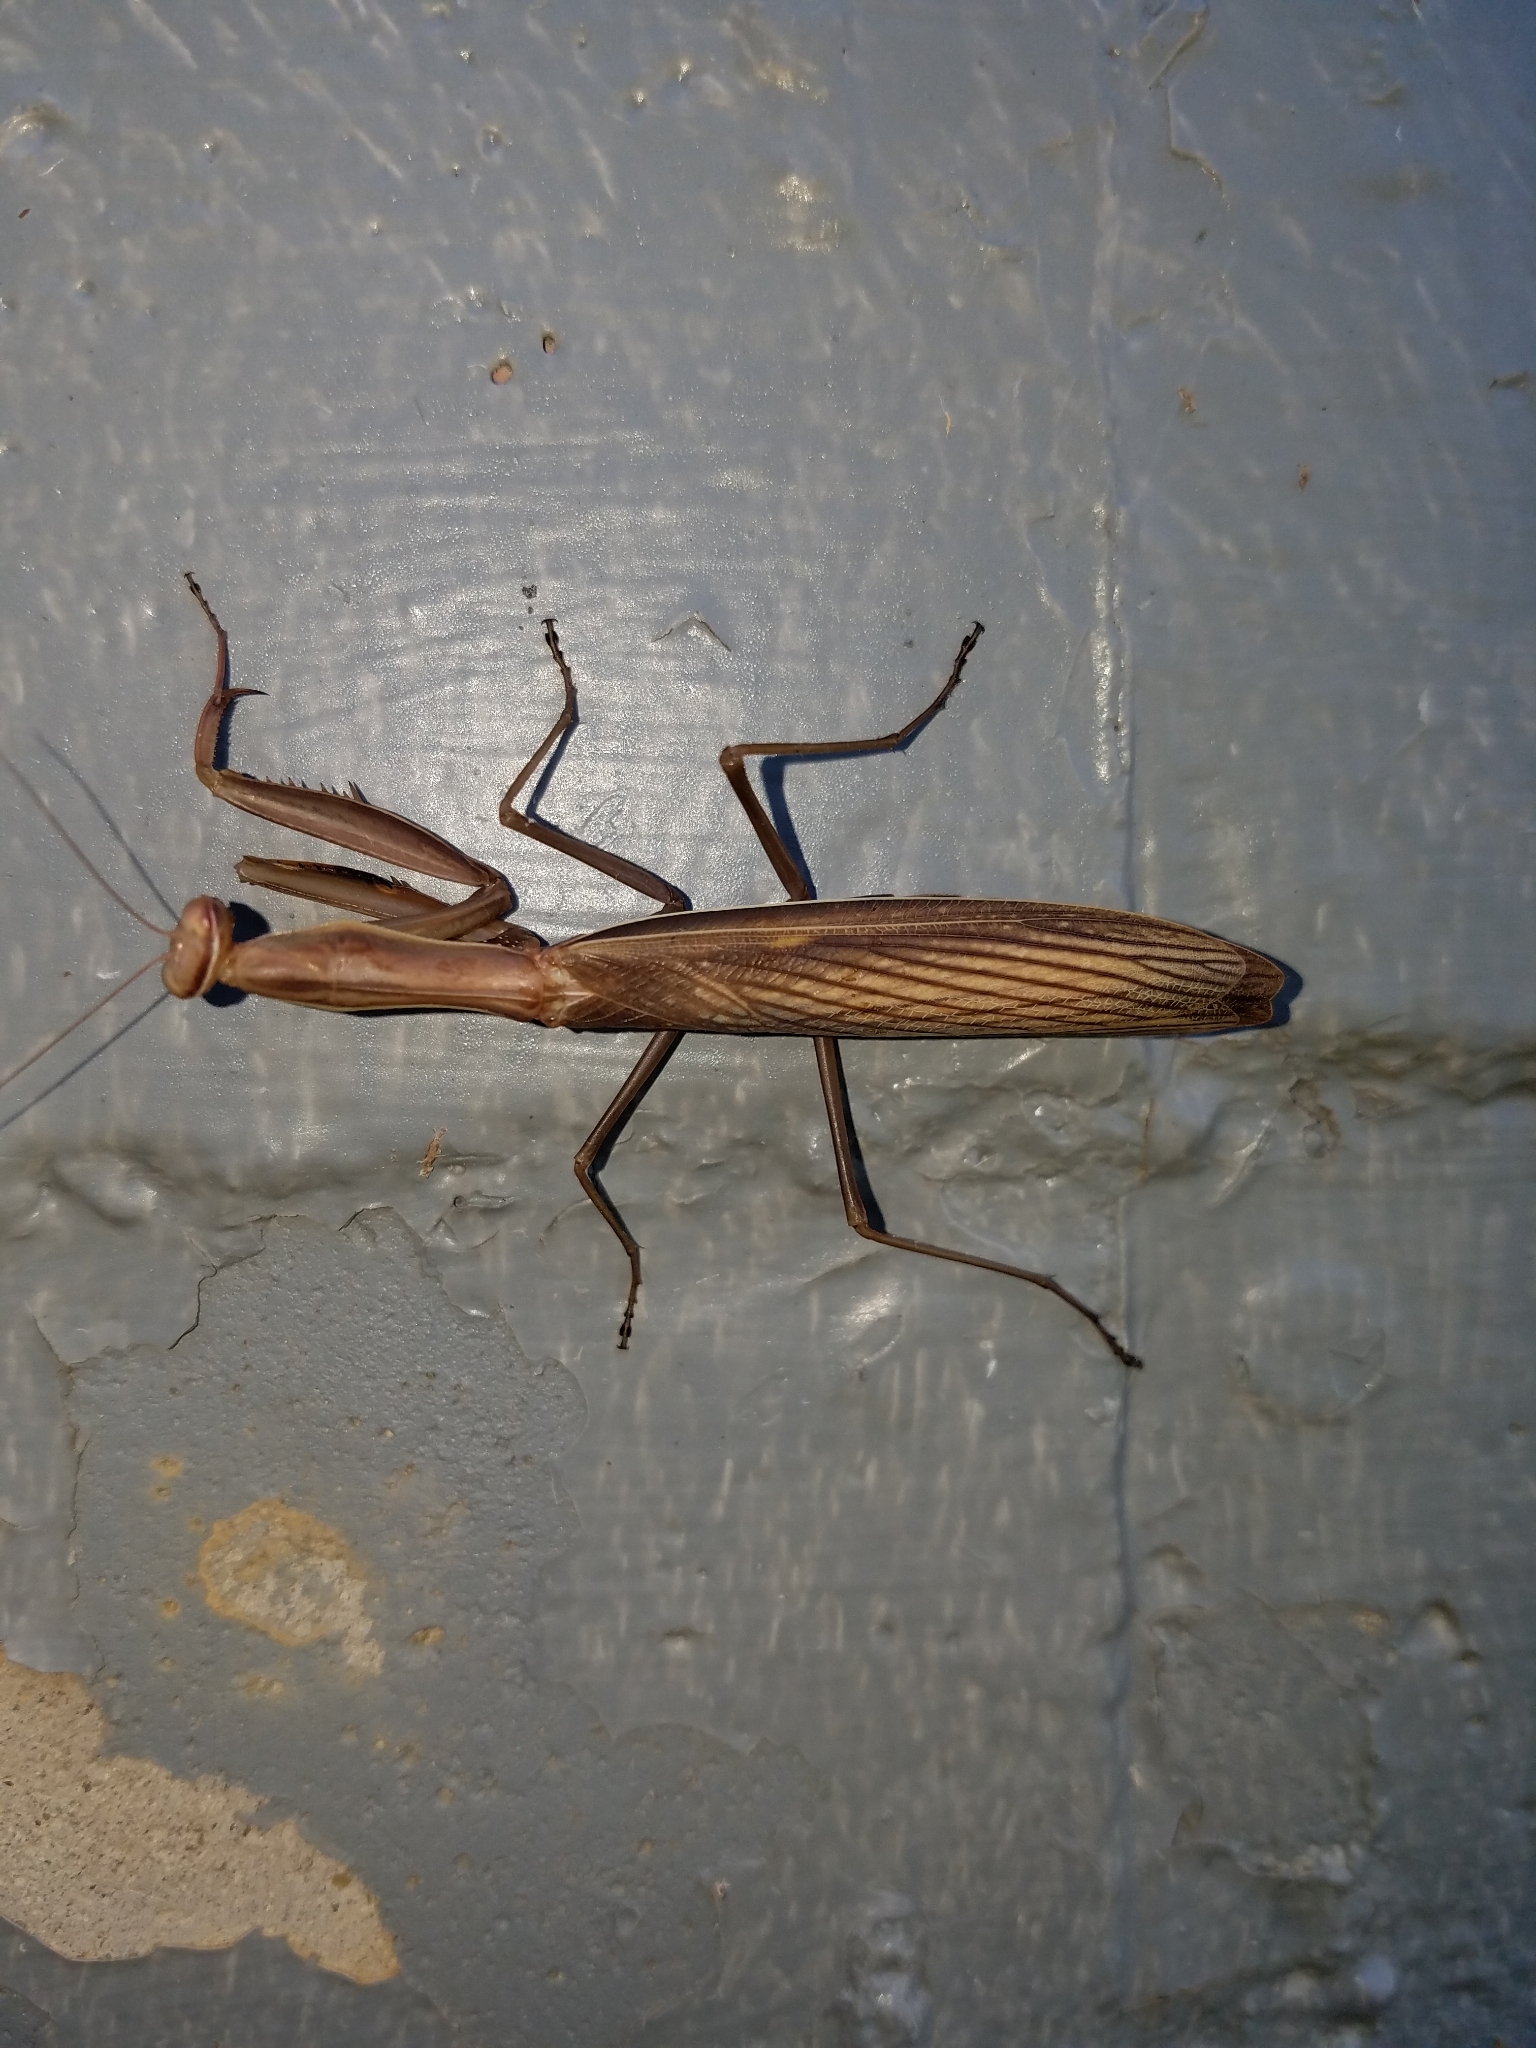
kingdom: Animalia
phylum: Arthropoda
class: Insecta
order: Mantodea
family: Mantidae
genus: Mantis
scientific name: Mantis religiosa
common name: Praying mantis
